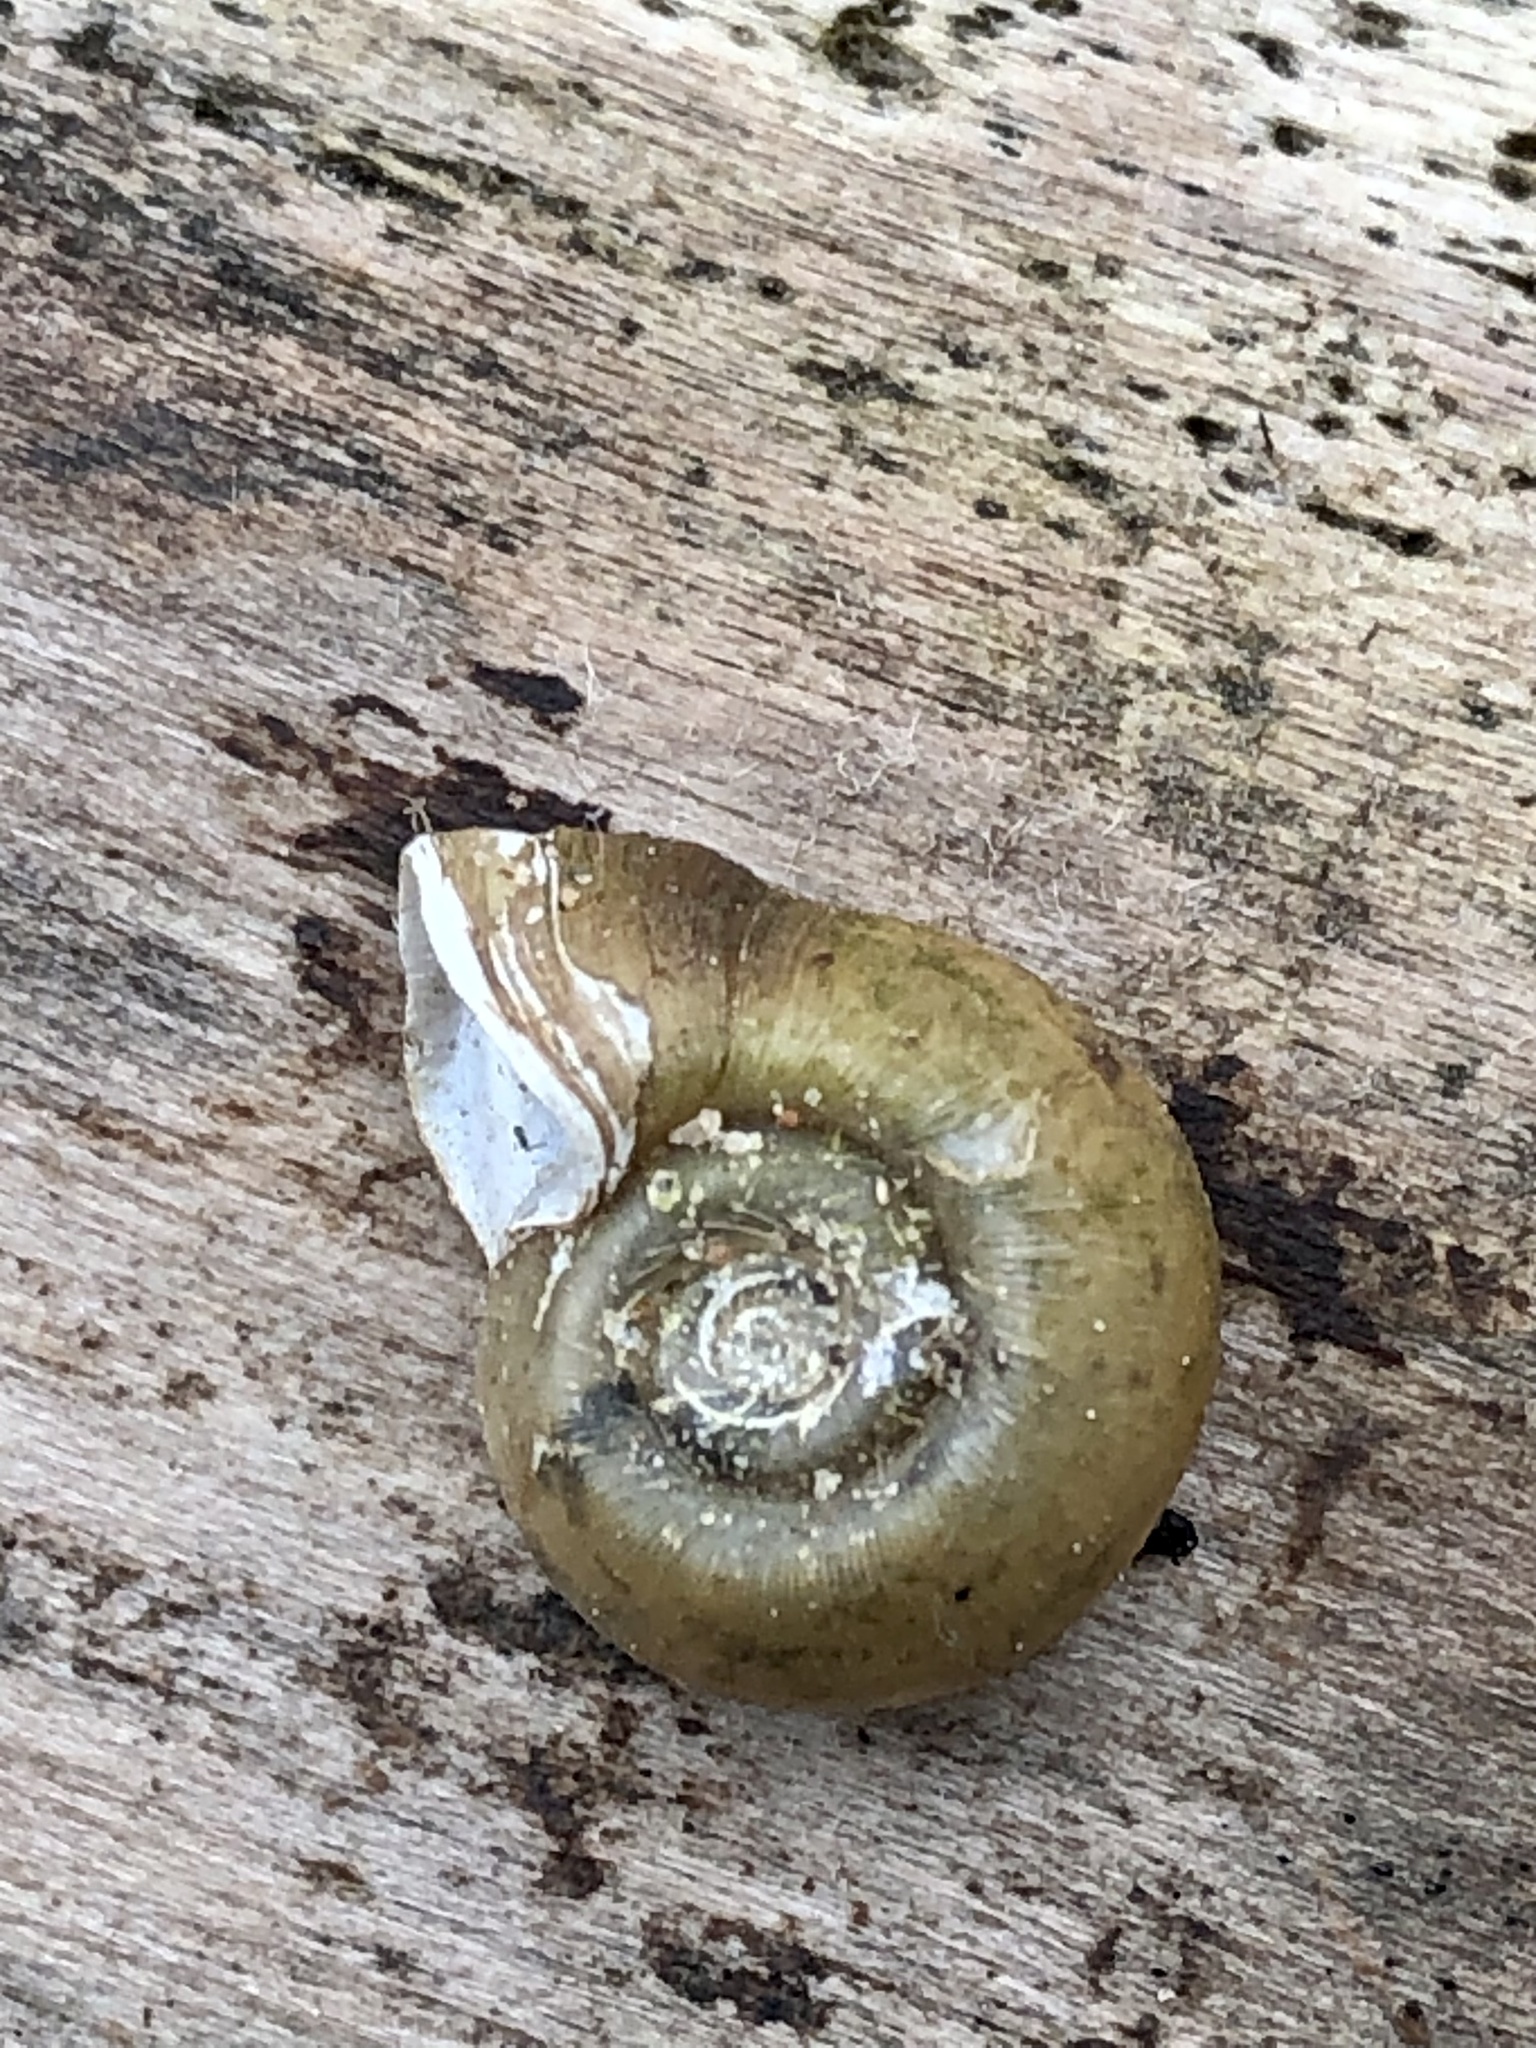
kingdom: Animalia
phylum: Mollusca
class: Gastropoda
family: Planorbidae
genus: Planorbella
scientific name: Planorbella campanulata
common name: Bellmouth ramshorn
